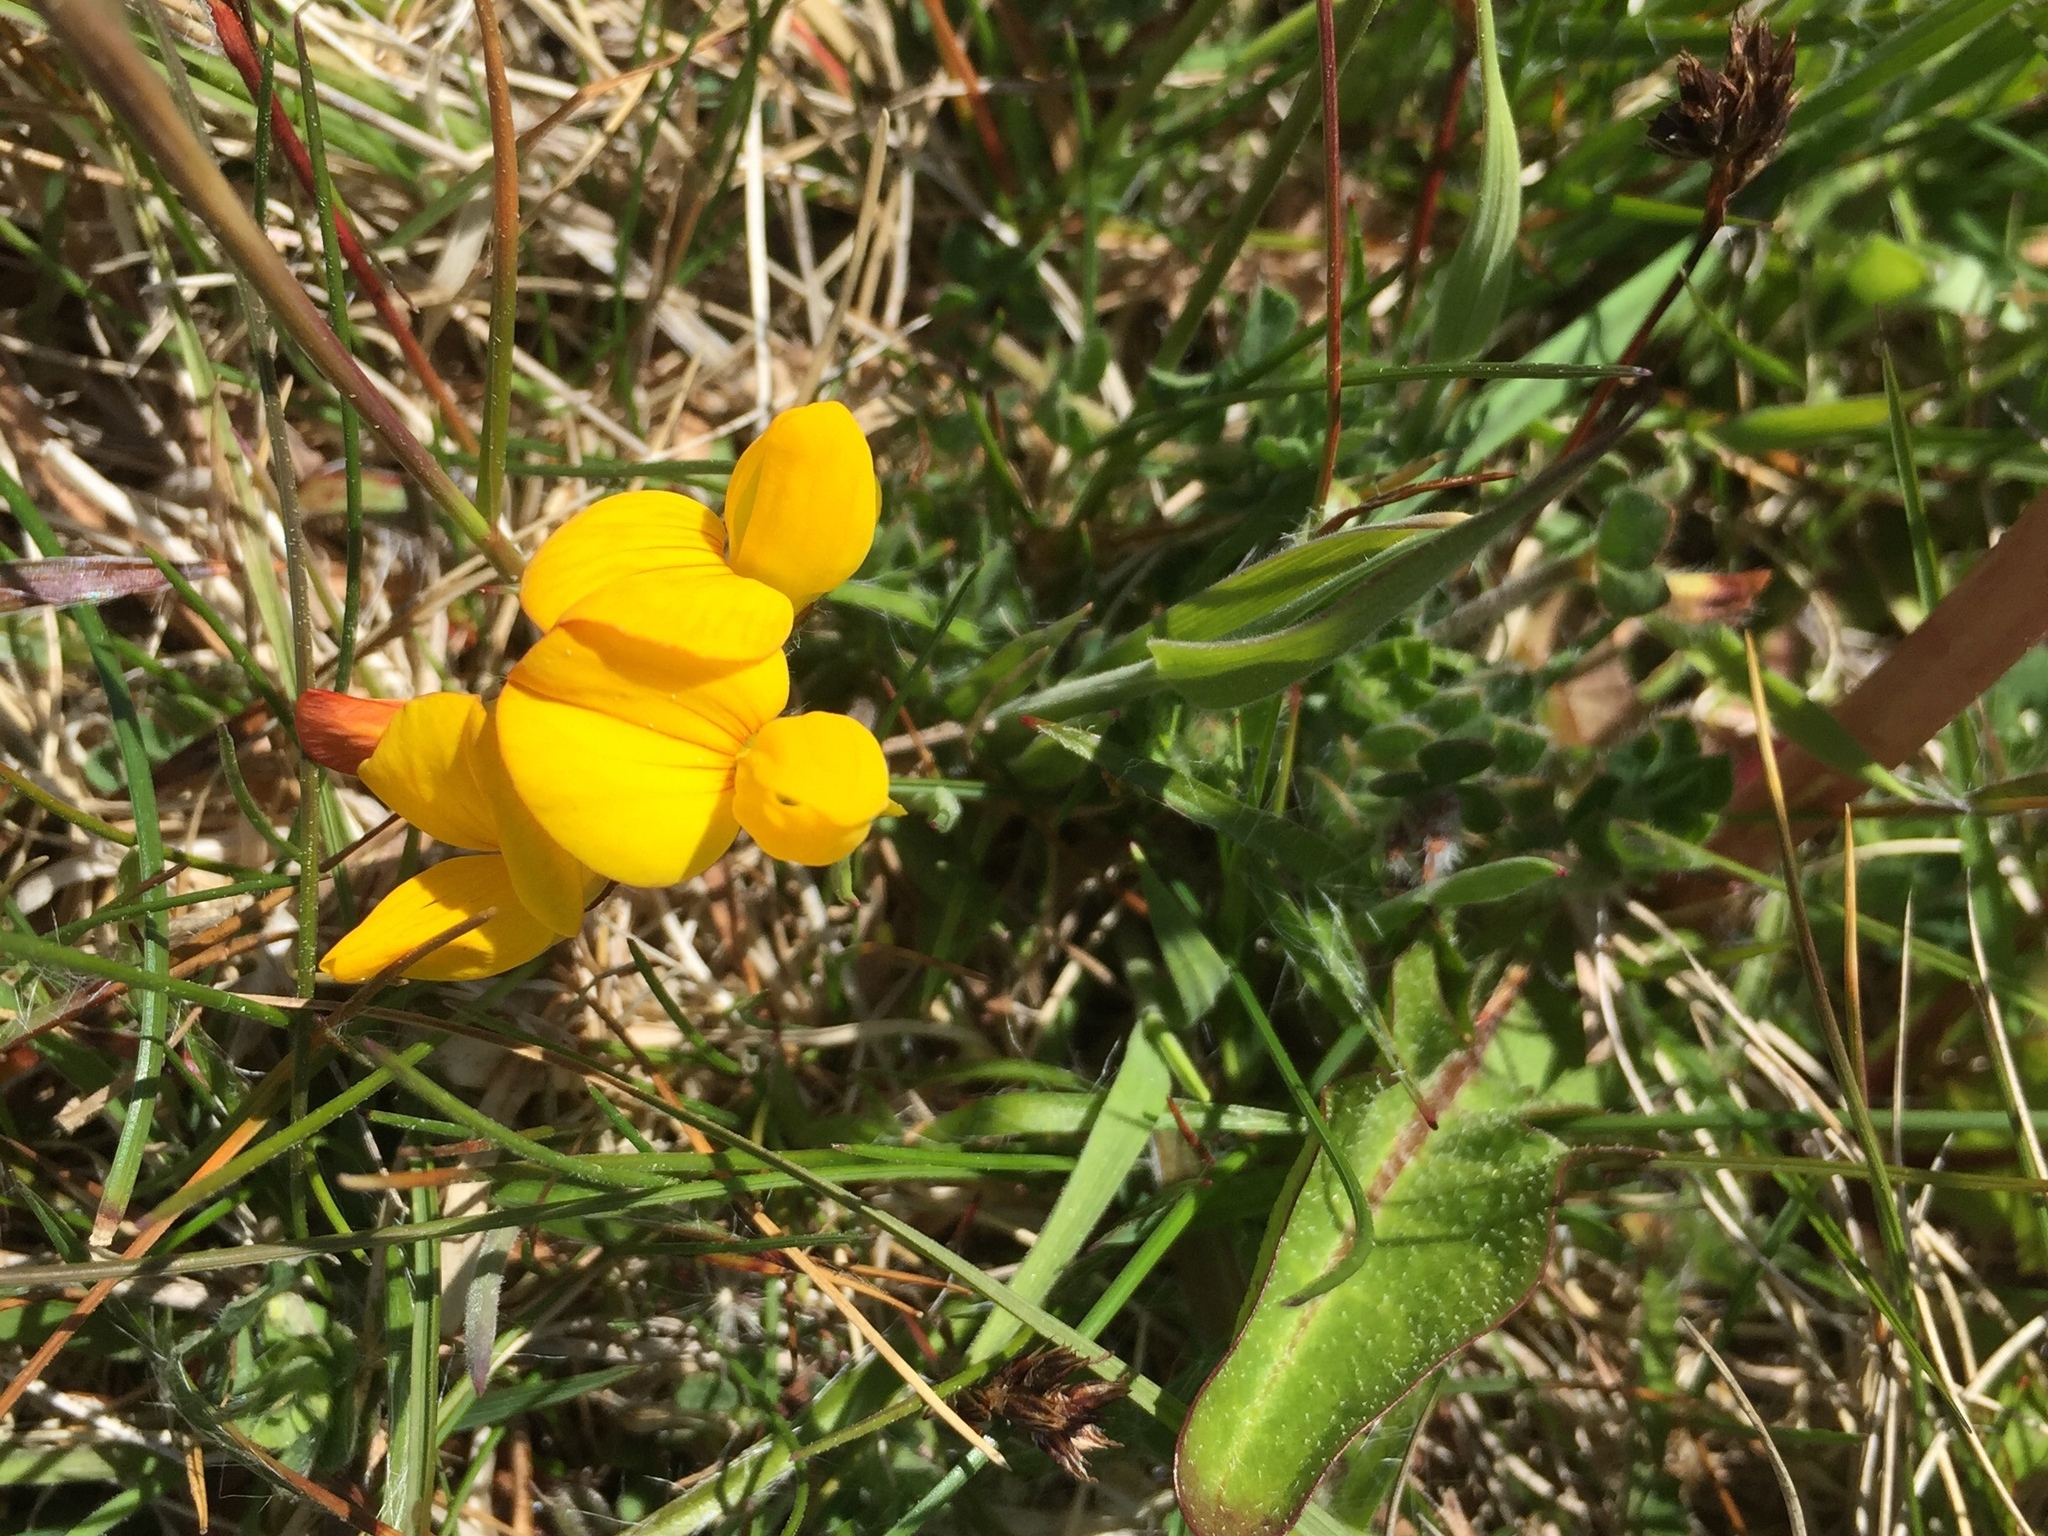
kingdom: Plantae
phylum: Tracheophyta
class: Magnoliopsida
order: Fabales
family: Fabaceae
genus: Lotus
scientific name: Lotus corniculatus
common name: Common bird's-foot-trefoil
